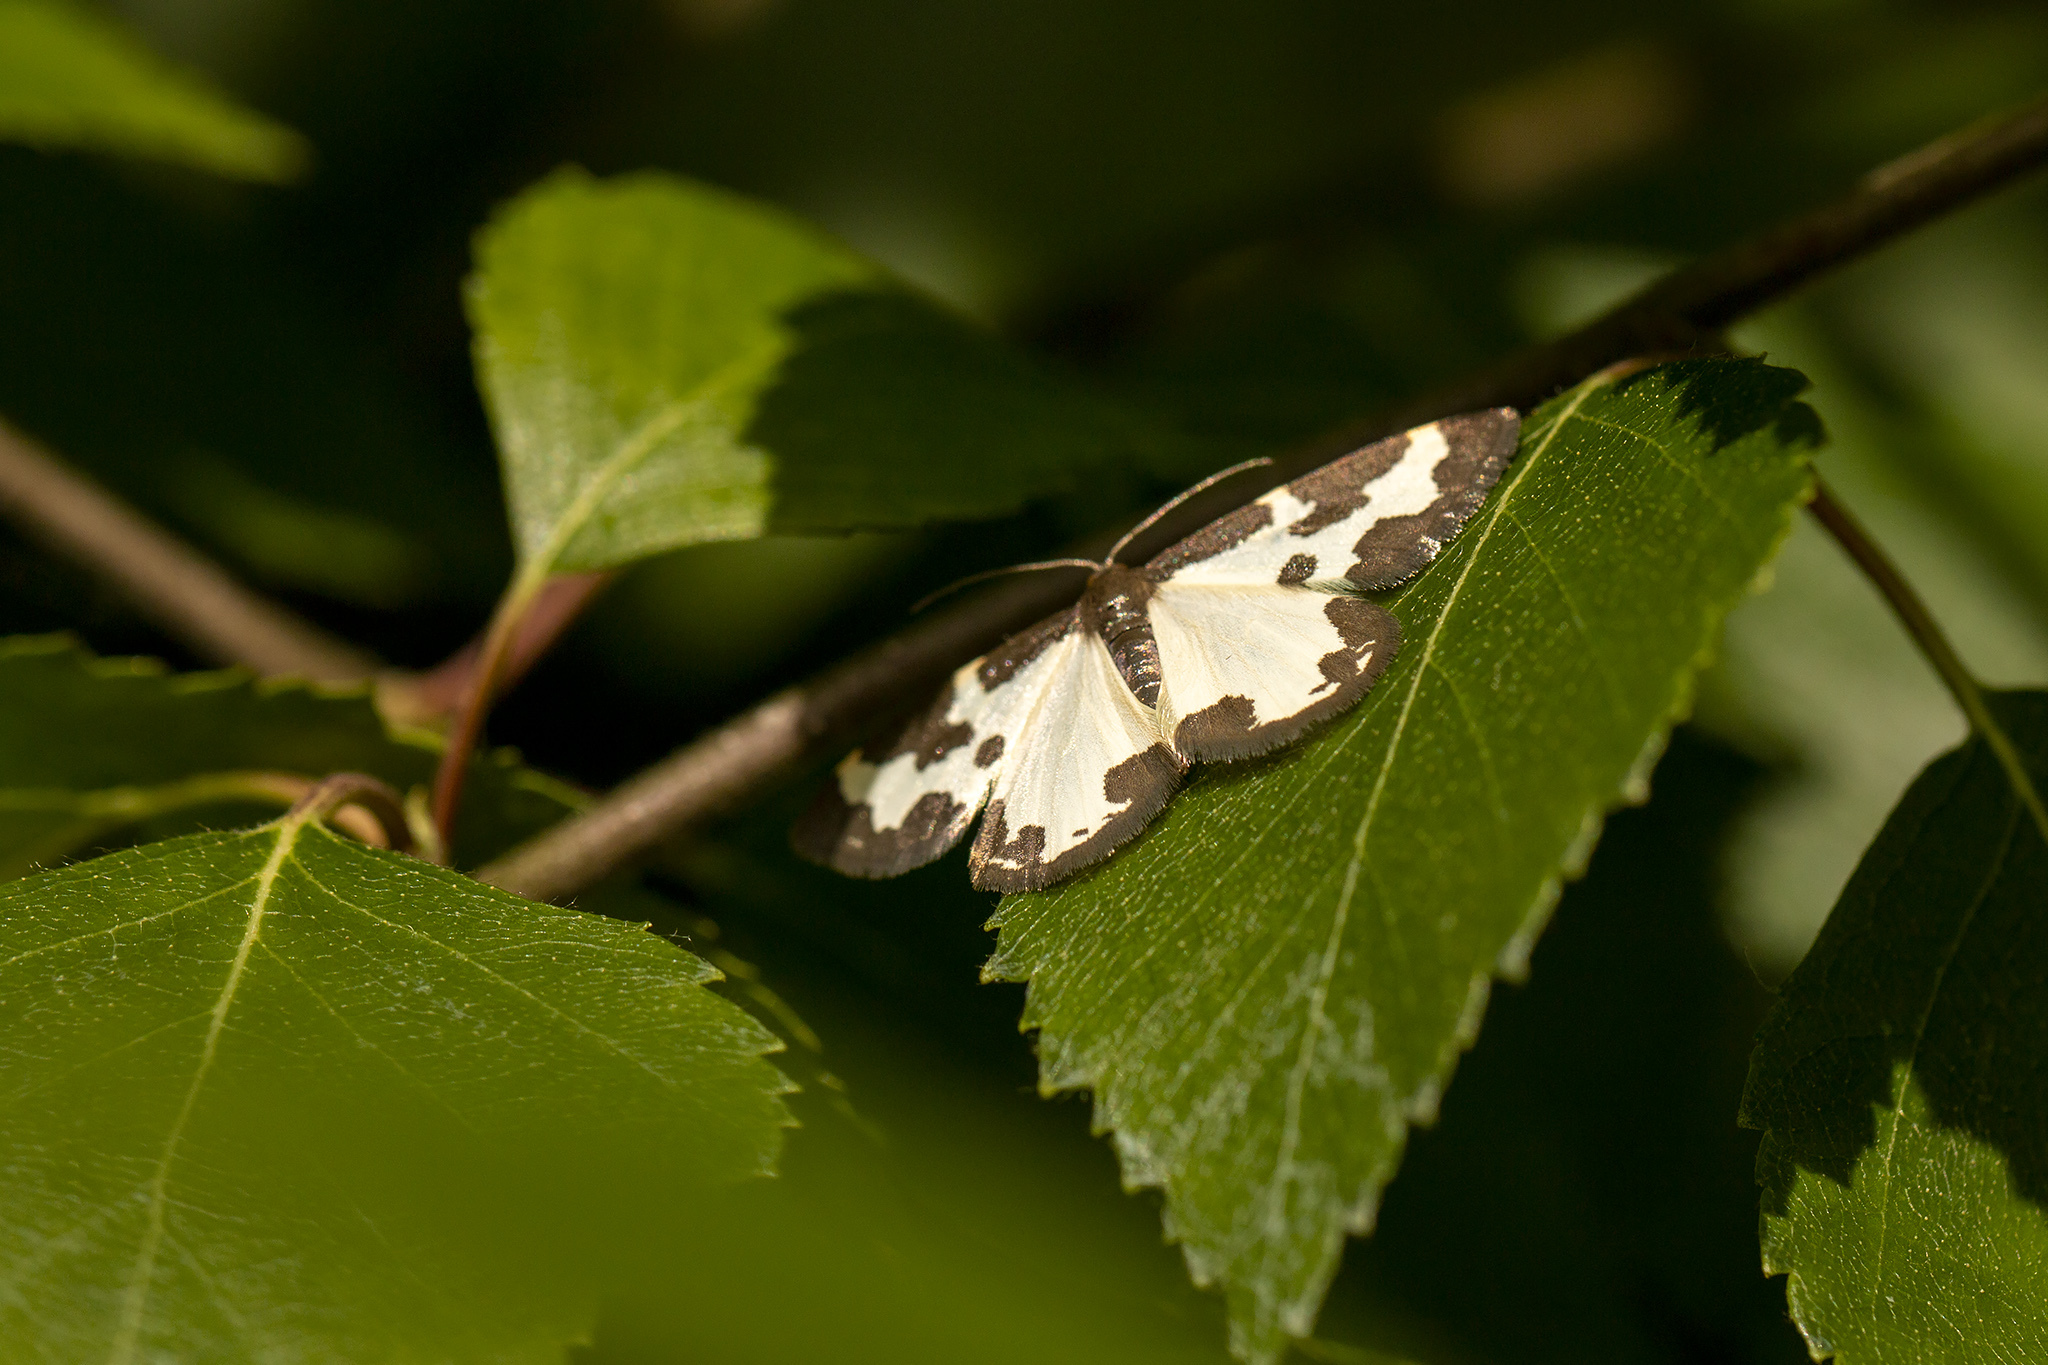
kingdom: Animalia
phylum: Arthropoda
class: Insecta
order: Lepidoptera
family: Geometridae
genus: Lomaspilis
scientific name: Lomaspilis marginata
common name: Clouded border
